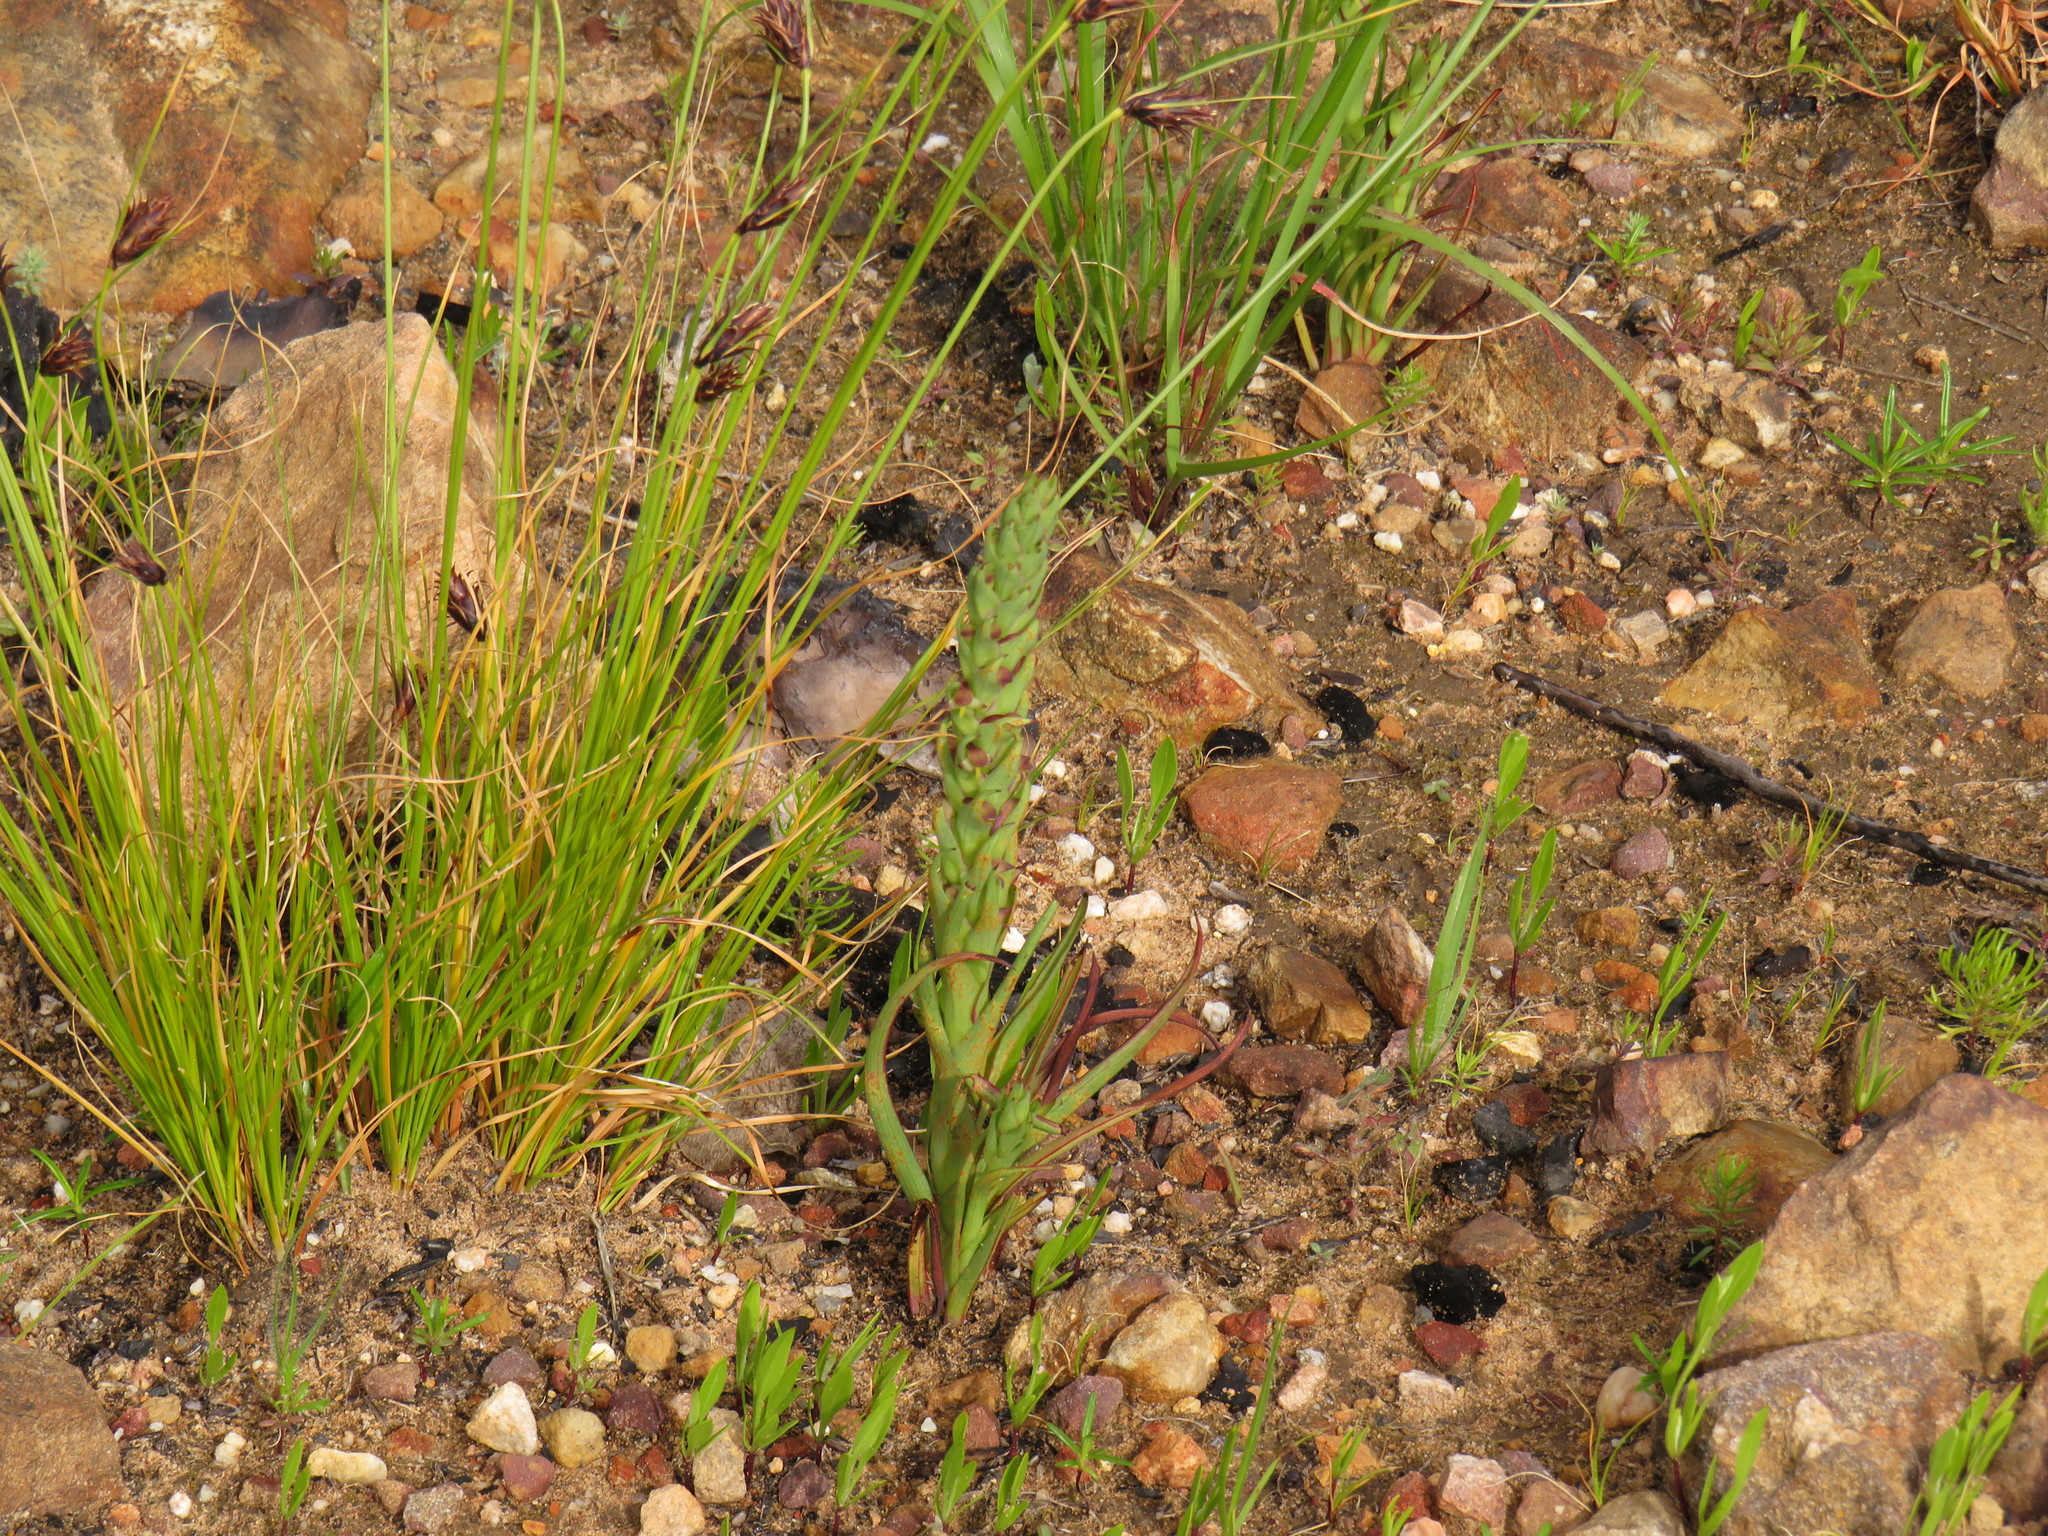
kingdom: Plantae
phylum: Tracheophyta
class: Liliopsida
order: Asparagales
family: Orchidaceae
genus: Disa
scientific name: Disa bracteata
